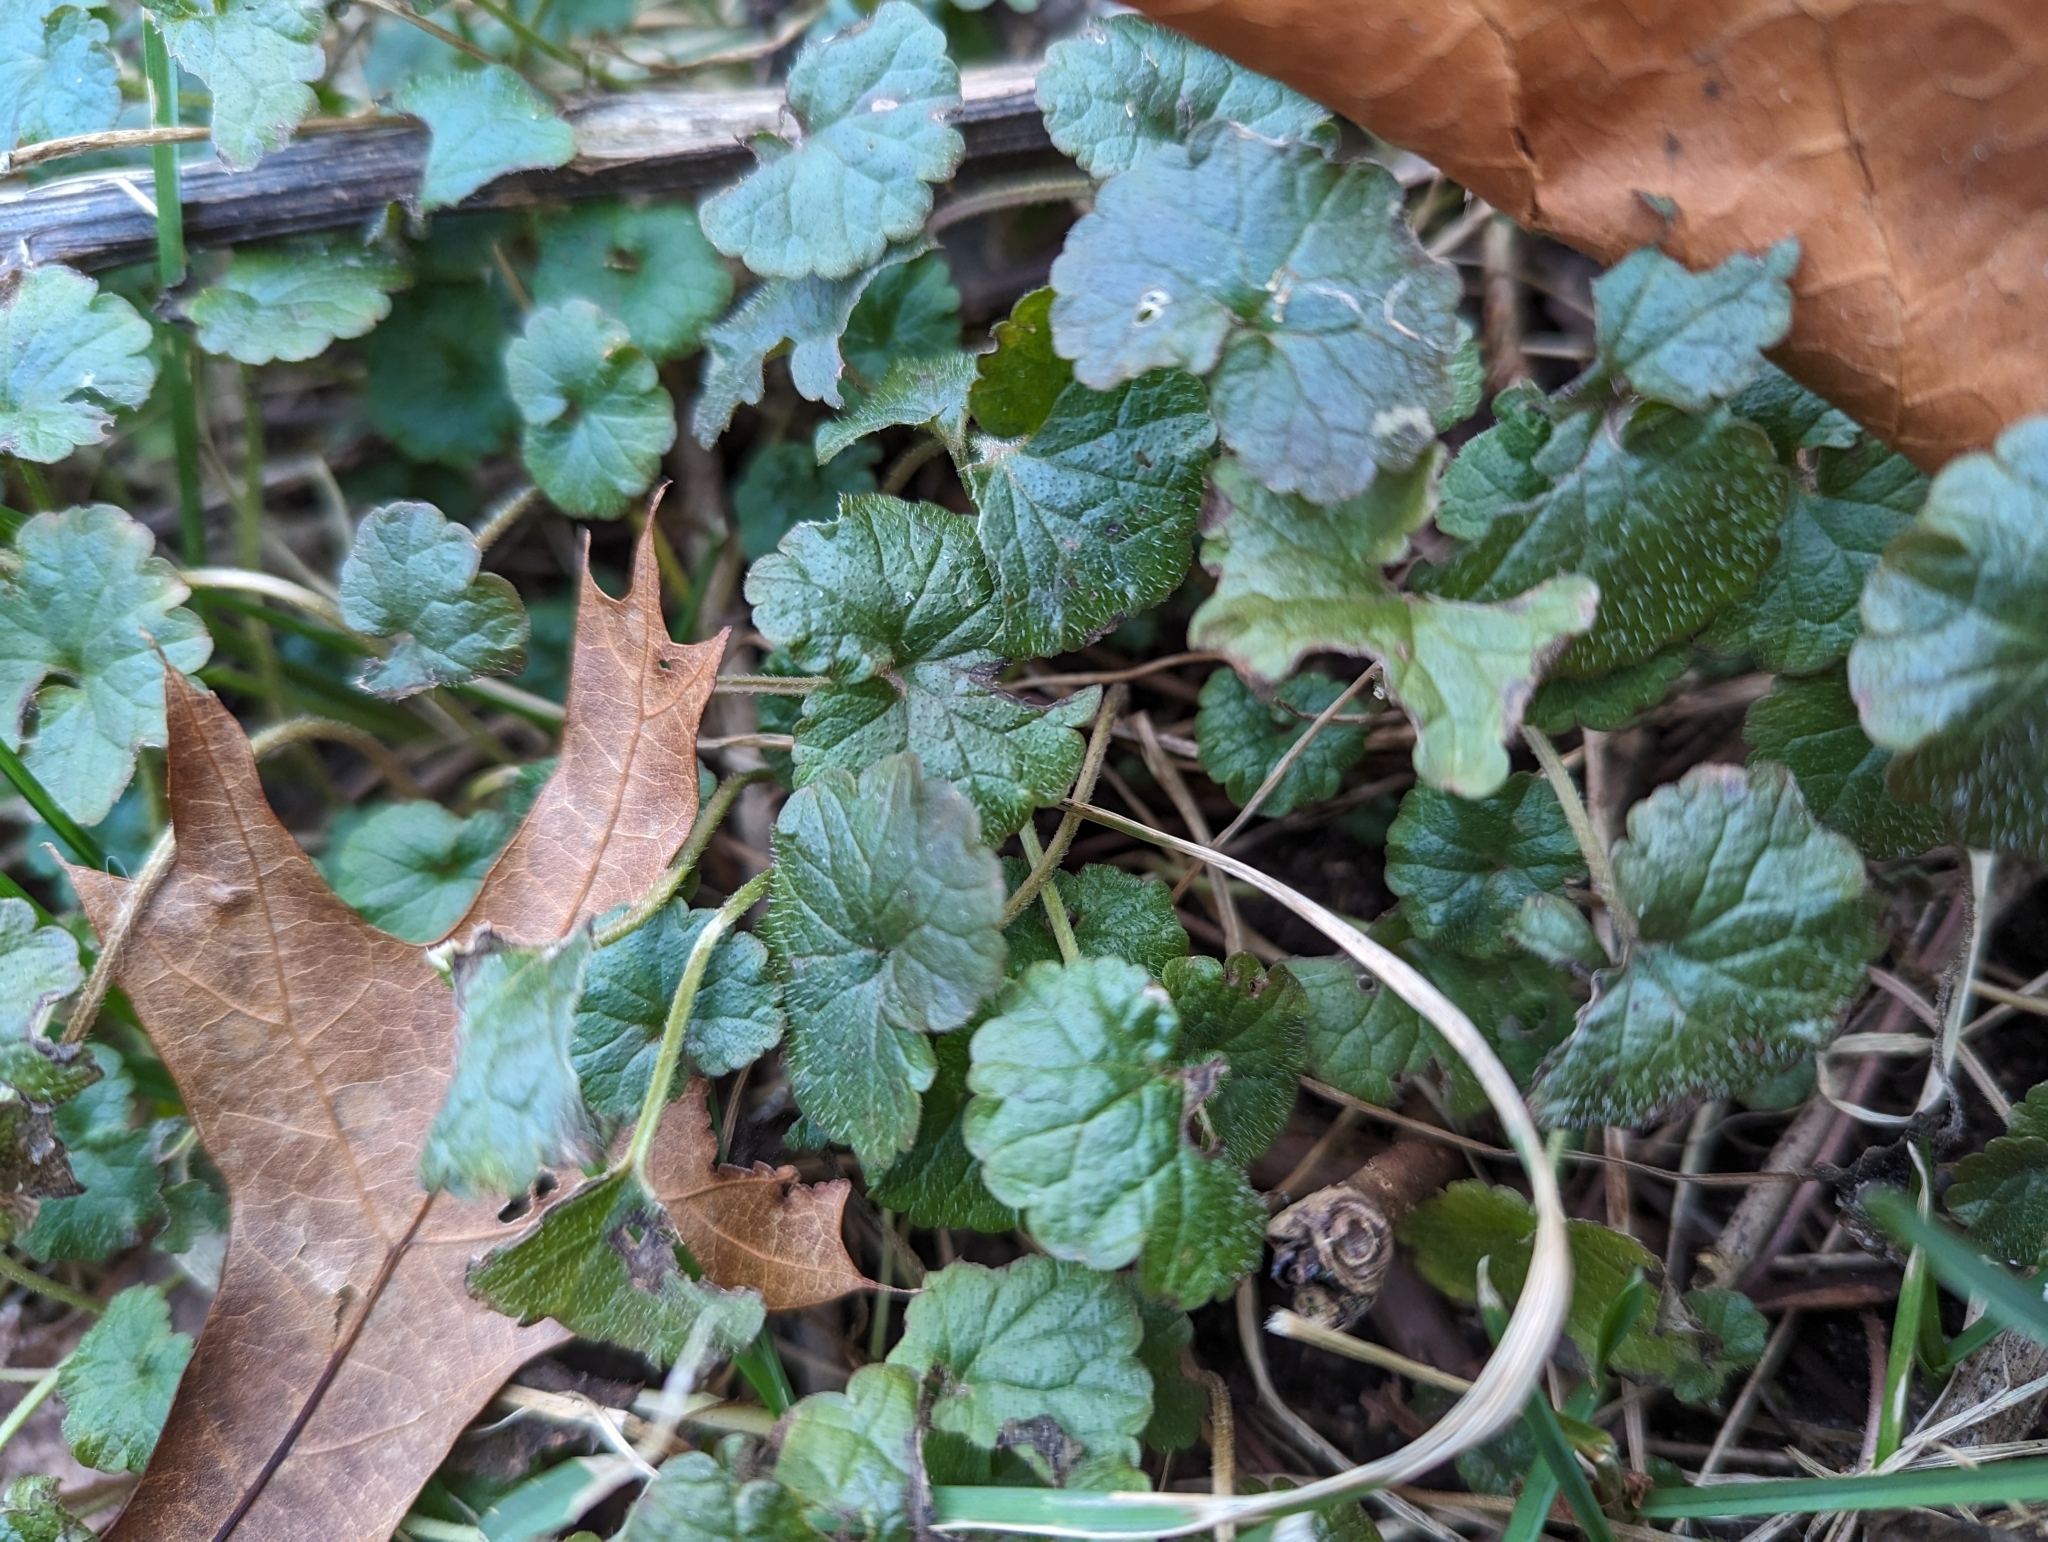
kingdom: Plantae
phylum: Tracheophyta
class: Magnoliopsida
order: Lamiales
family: Lamiaceae
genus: Glechoma
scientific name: Glechoma hederacea
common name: Ground ivy
